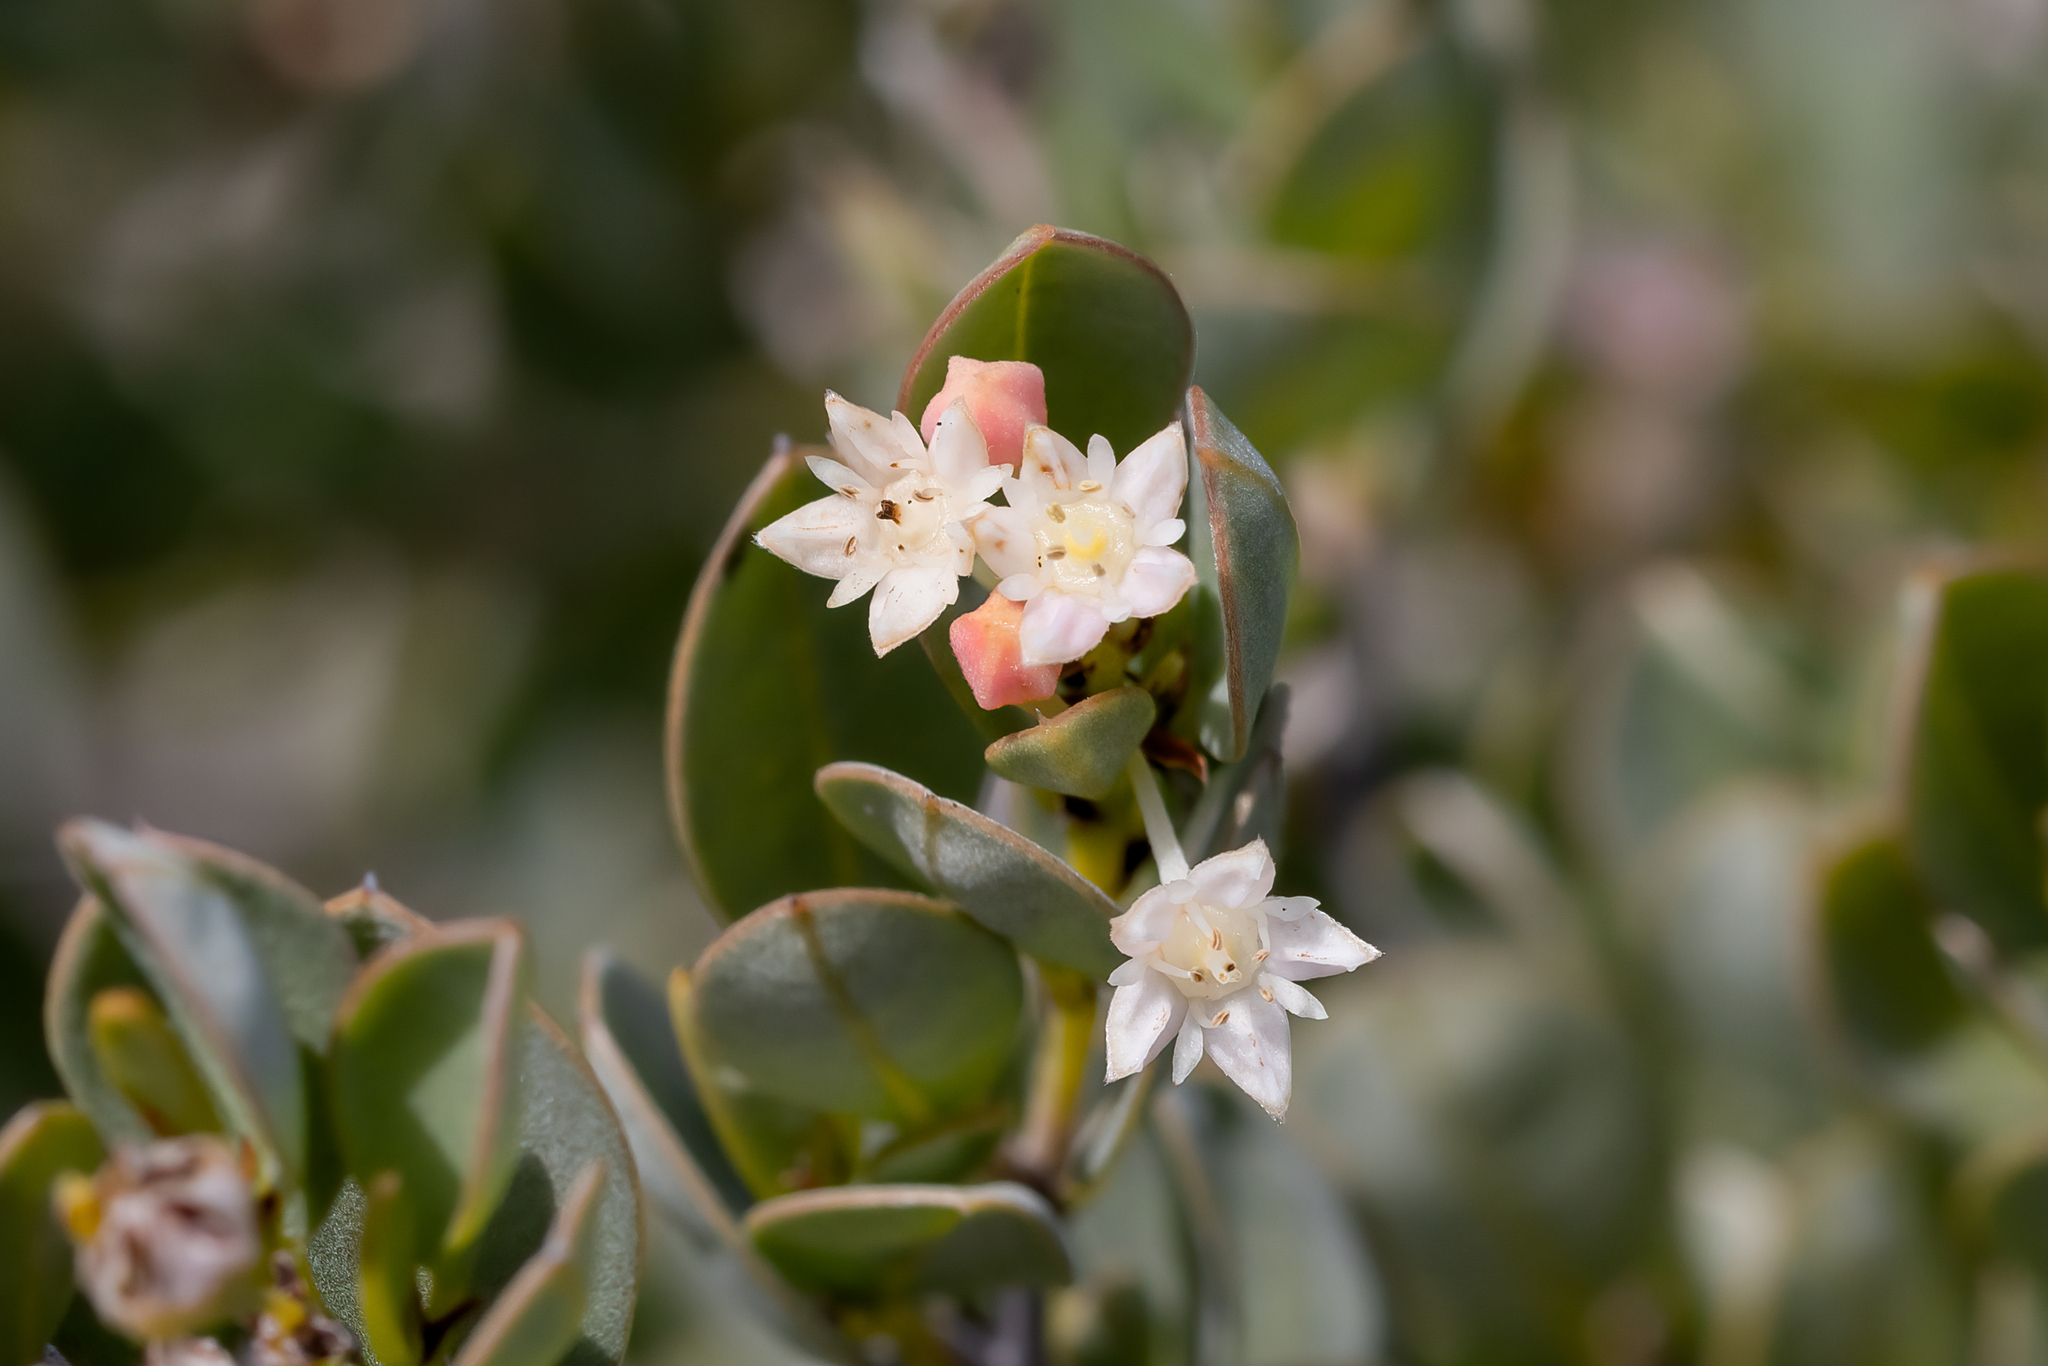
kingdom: Plantae
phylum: Tracheophyta
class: Magnoliopsida
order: Rosales
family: Rhamnaceae
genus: Pomaderris
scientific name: Pomaderris myrtilloides
